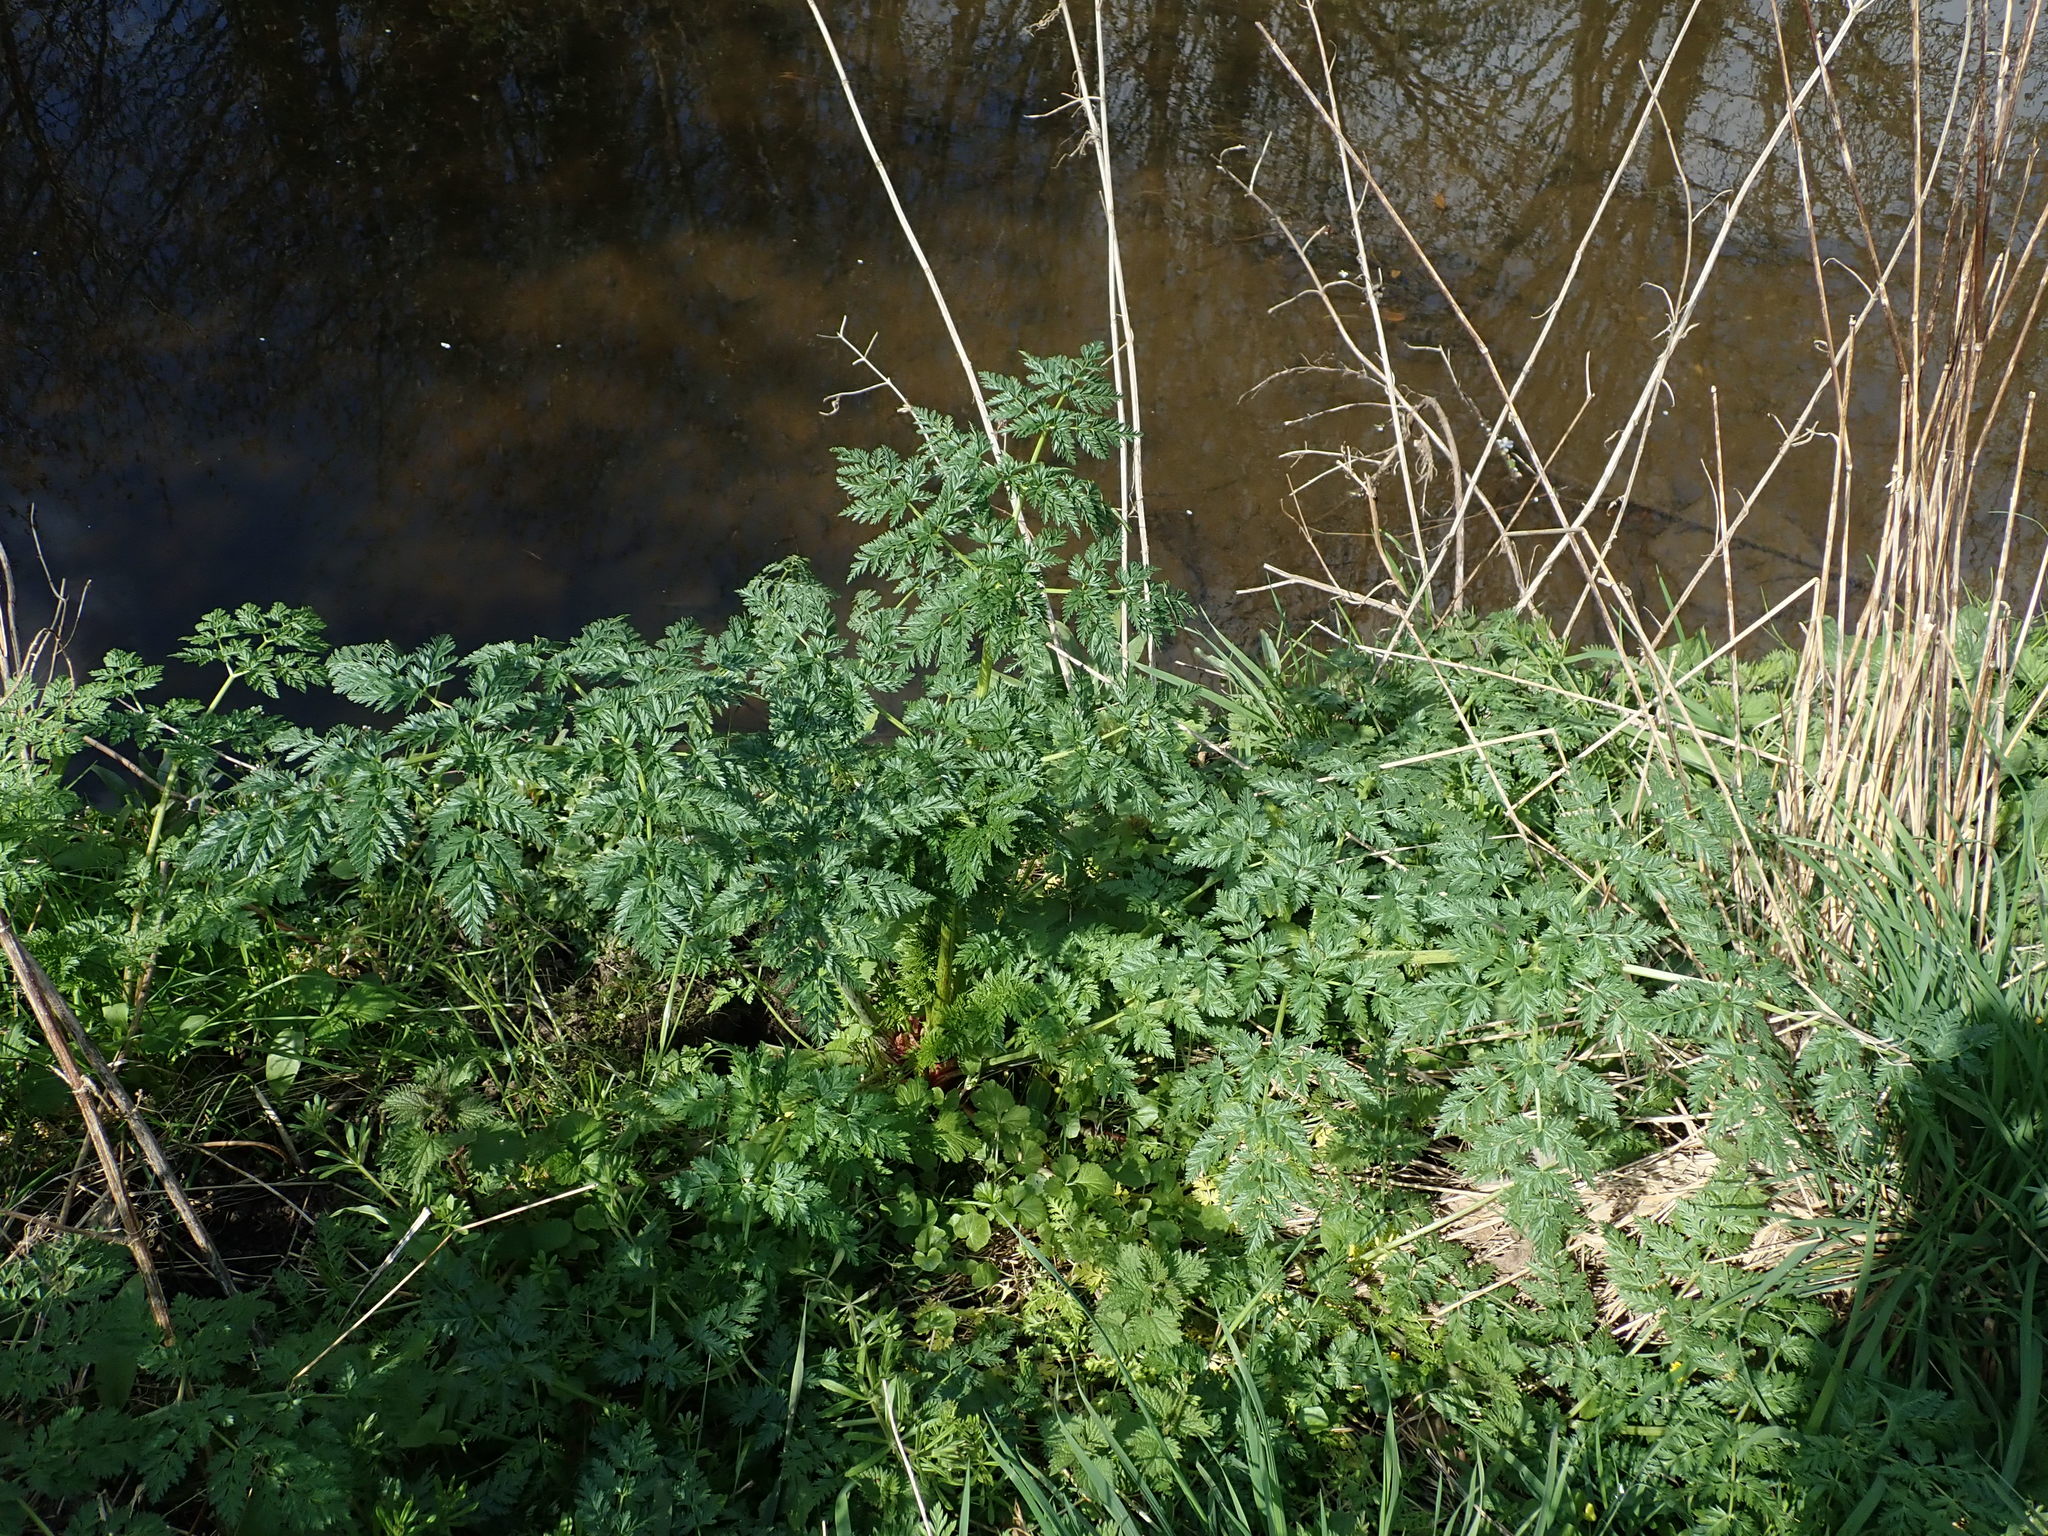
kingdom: Plantae
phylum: Tracheophyta
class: Magnoliopsida
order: Apiales
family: Apiaceae
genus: Conium
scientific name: Conium maculatum
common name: Hemlock
